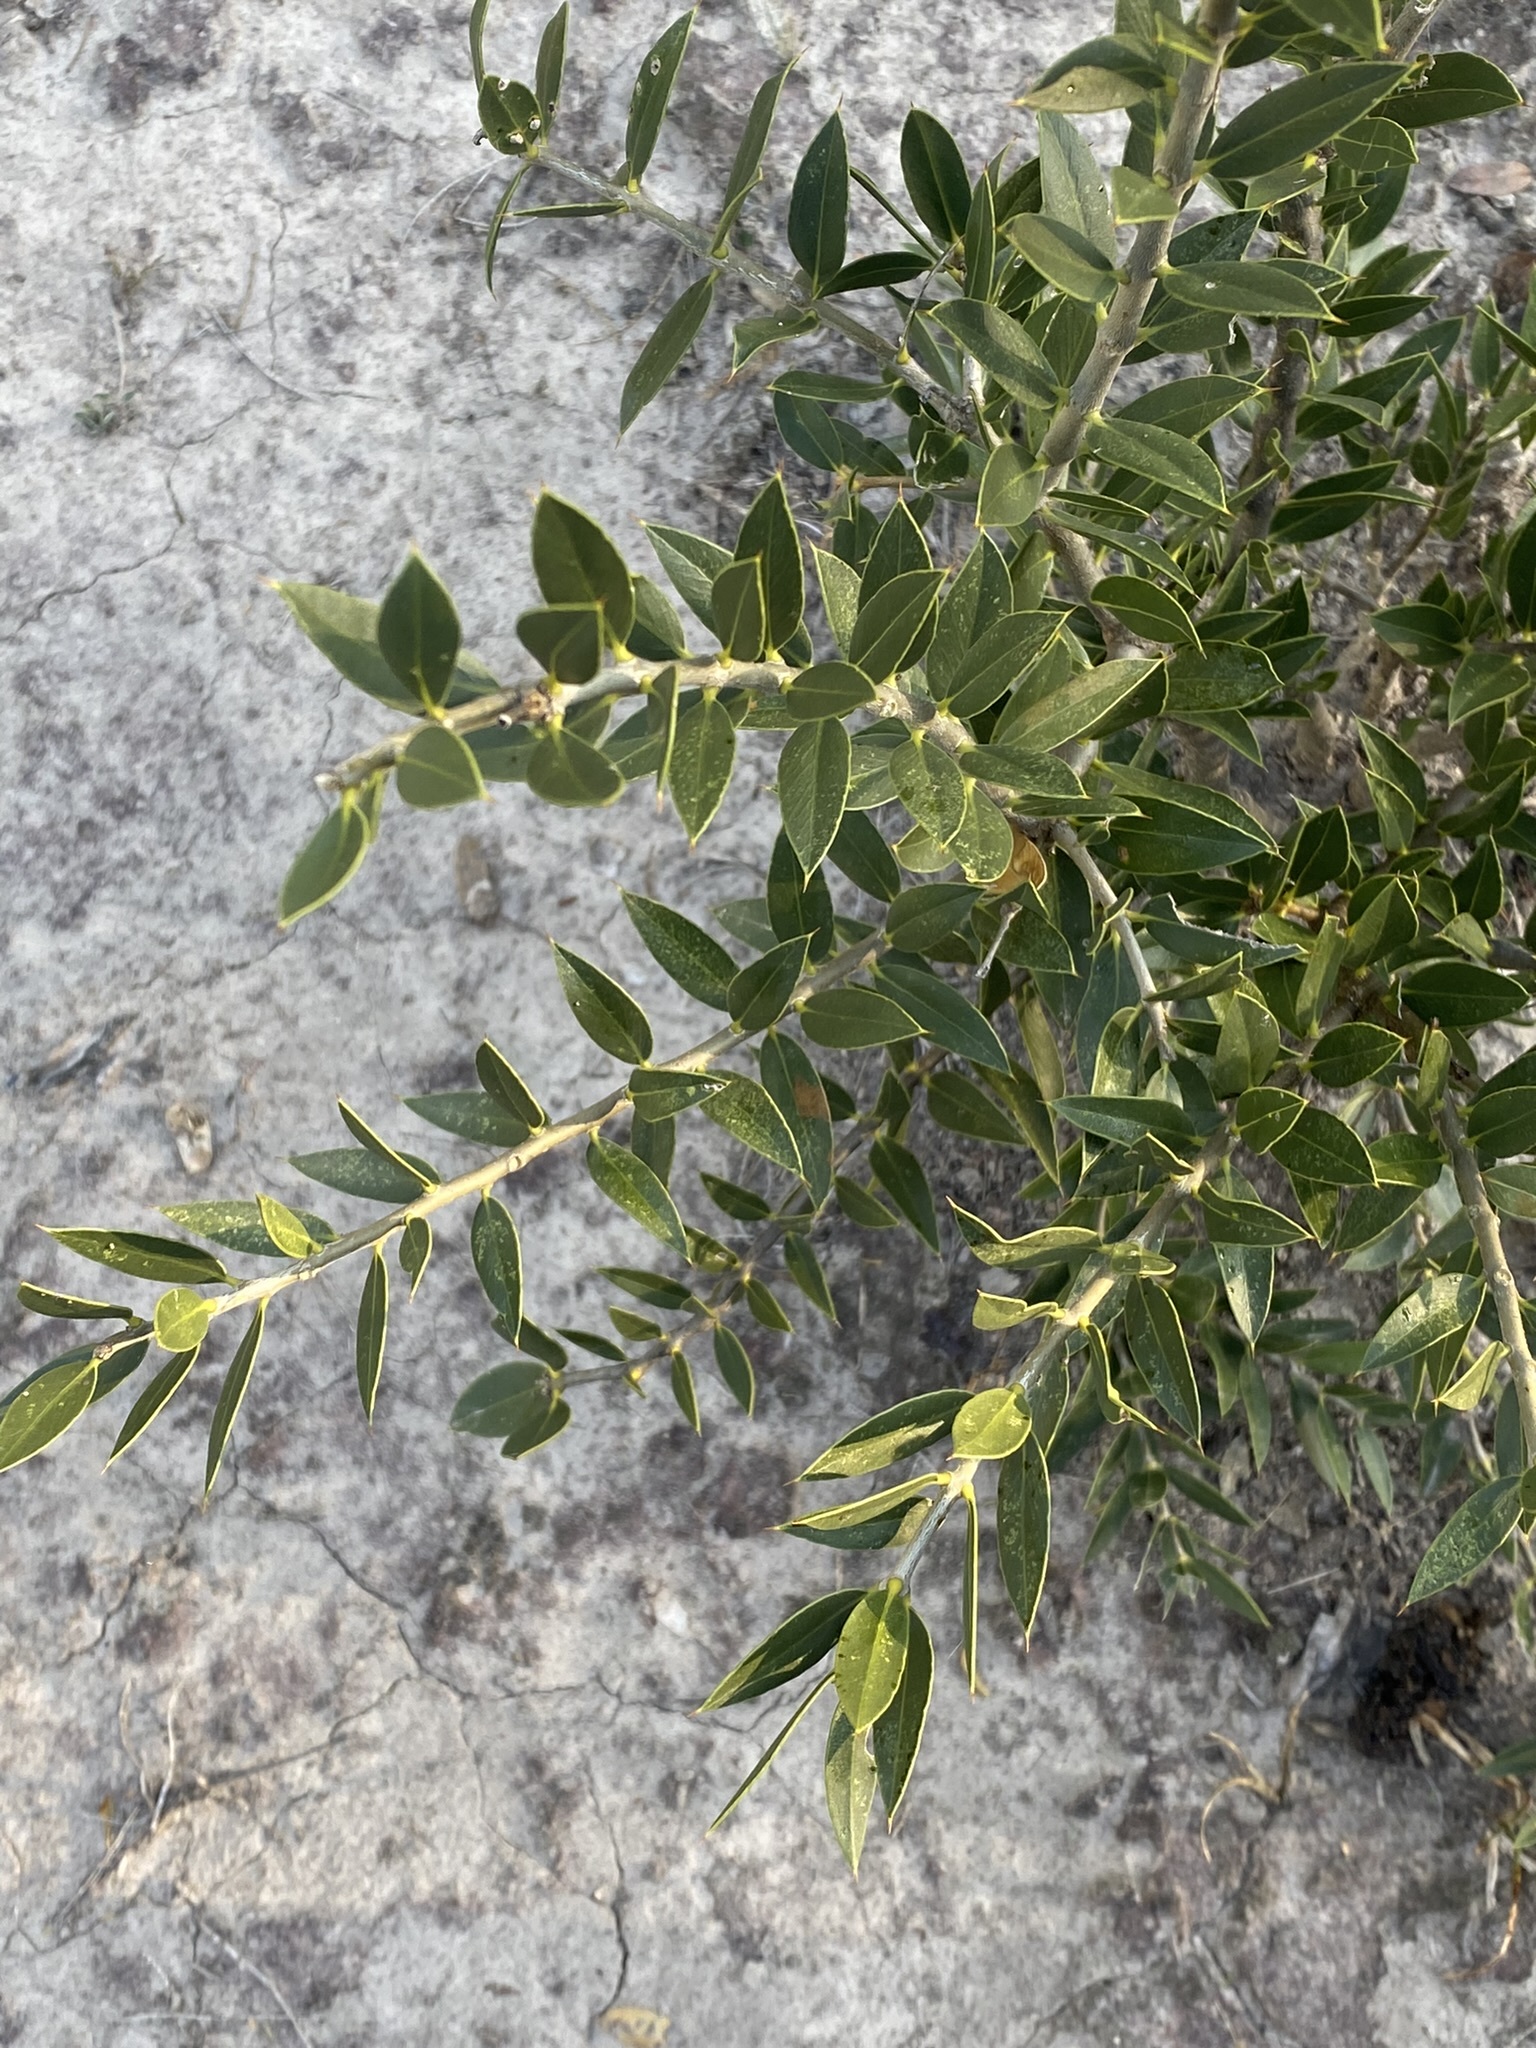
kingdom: Plantae
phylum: Tracheophyta
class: Magnoliopsida
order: Gentianales
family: Apocynaceae
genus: Aspidosperma
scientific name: Aspidosperma quebracho-blanco
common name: White quebracho
